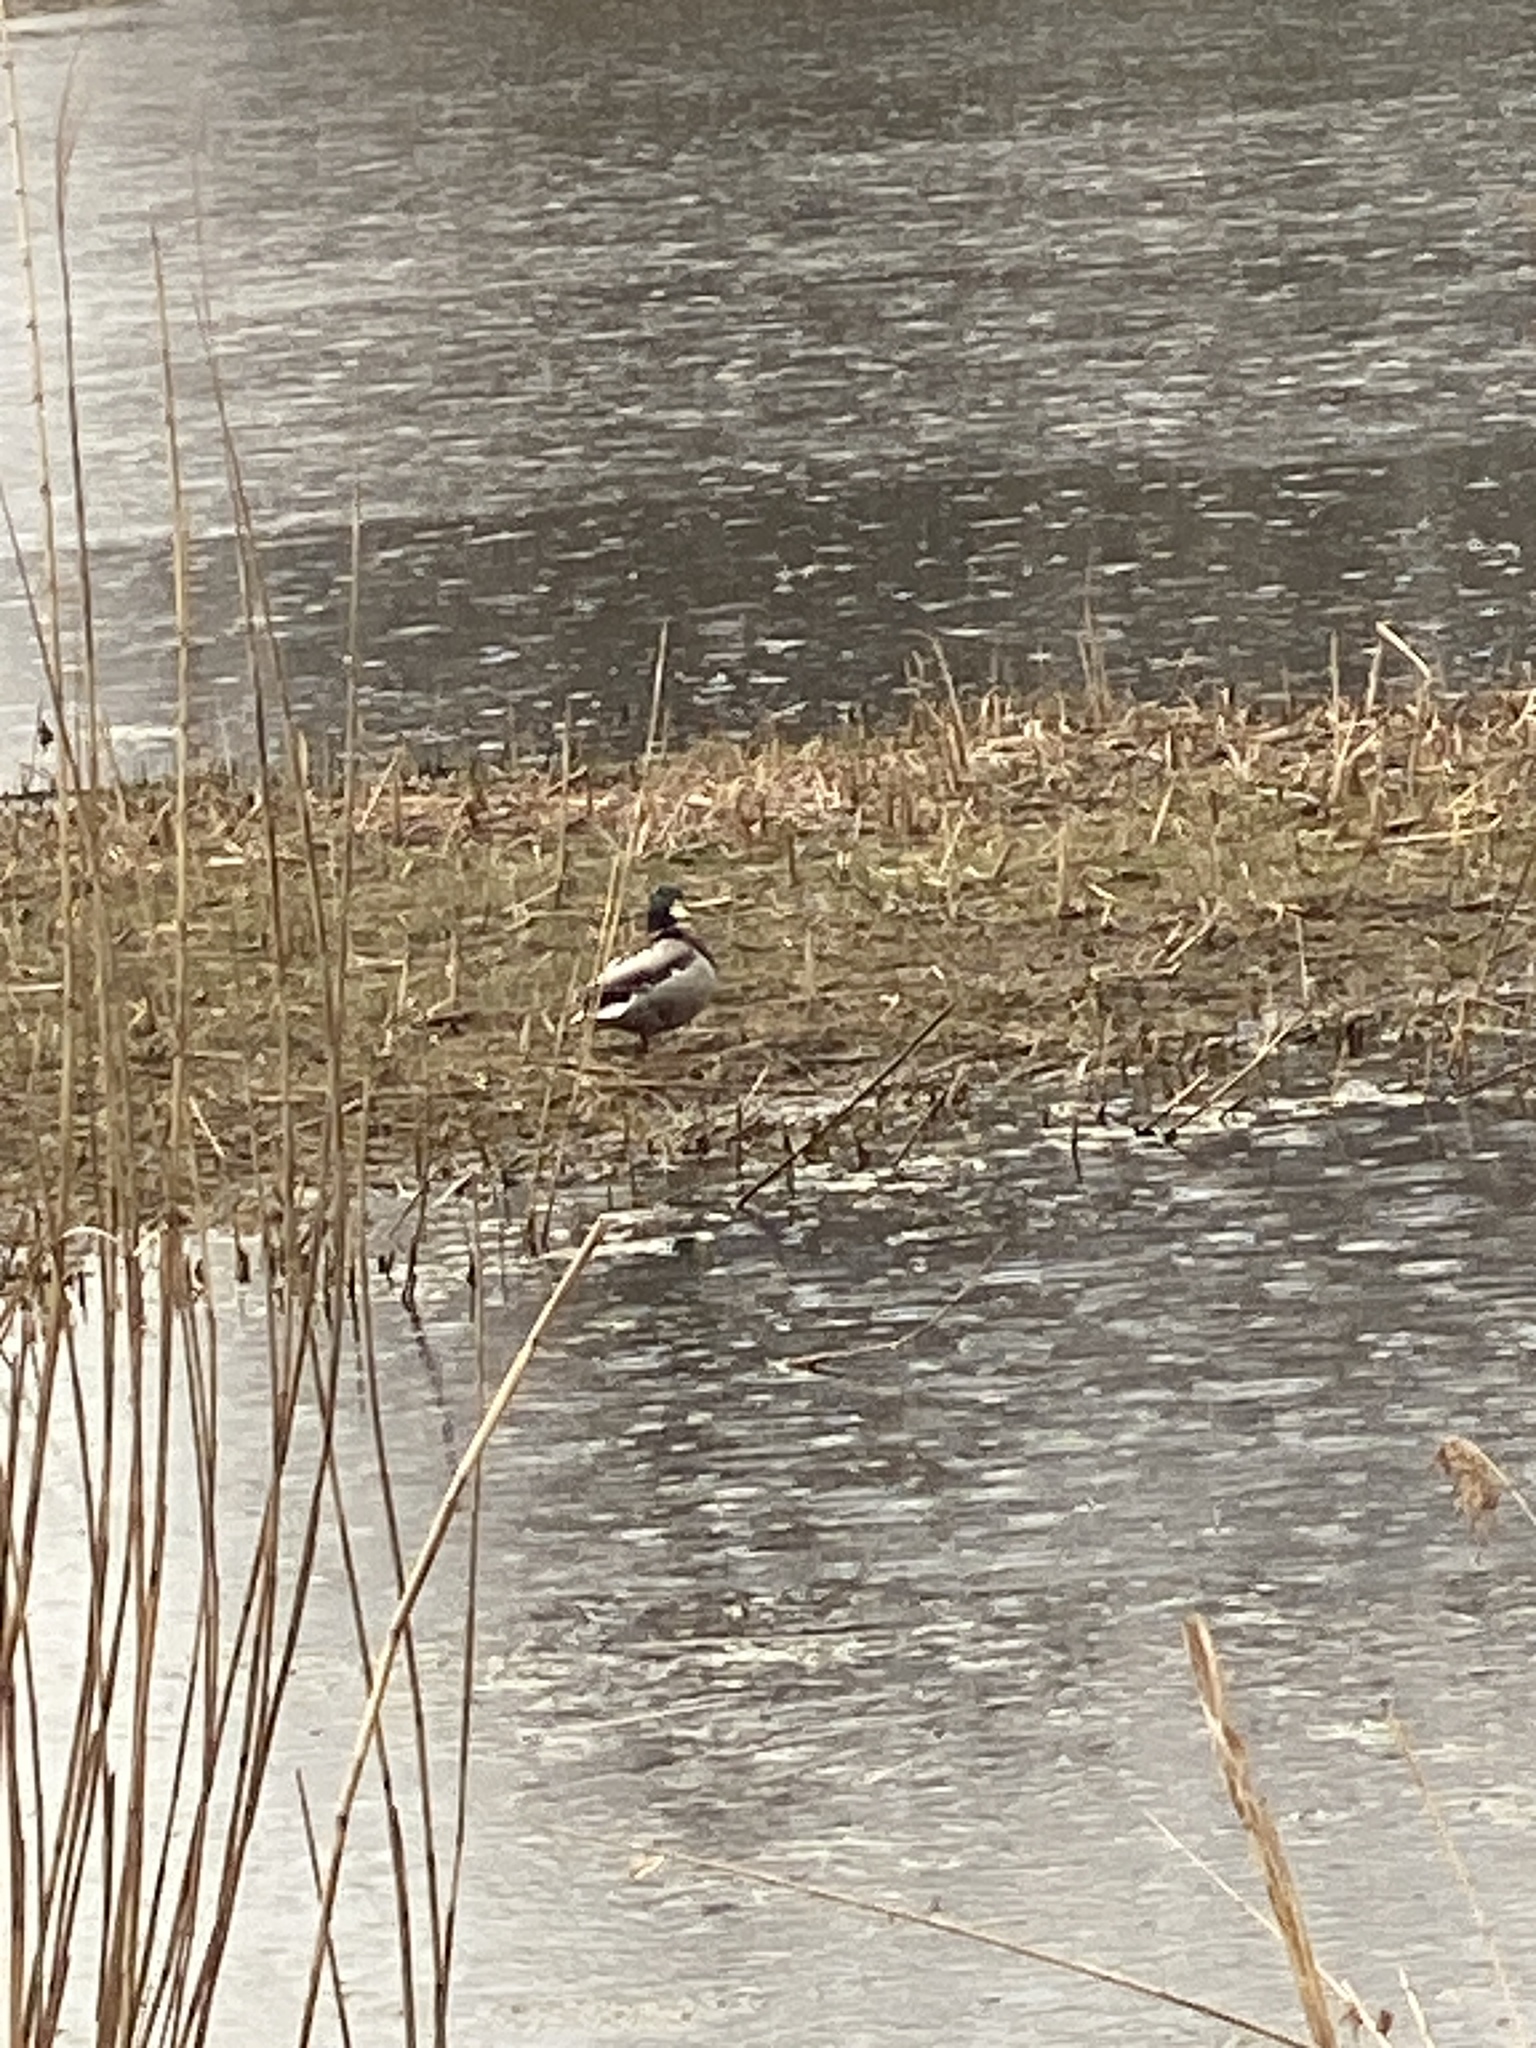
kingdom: Animalia
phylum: Chordata
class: Aves
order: Anseriformes
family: Anatidae
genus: Anas
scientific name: Anas platyrhynchos
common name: Mallard
